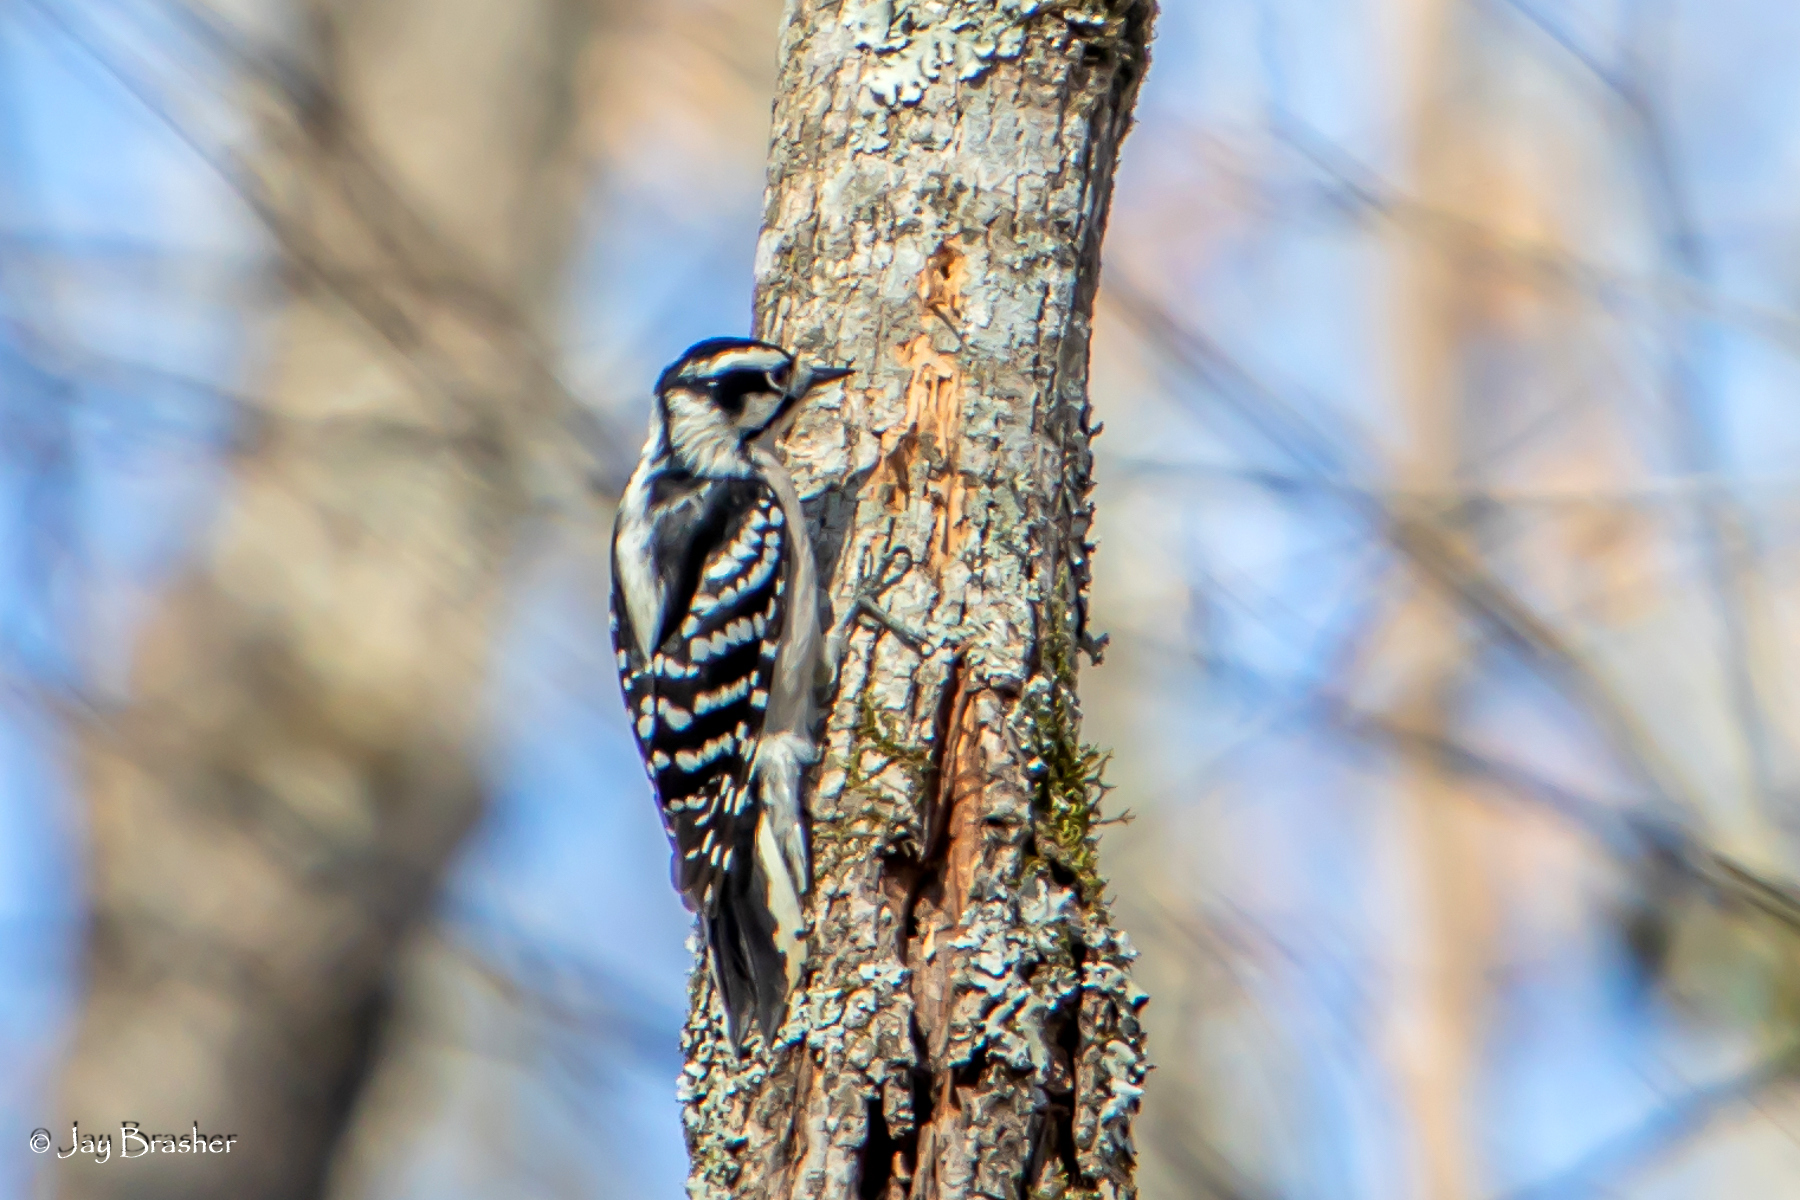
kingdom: Animalia
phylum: Chordata
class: Aves
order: Piciformes
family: Picidae
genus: Dryobates
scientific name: Dryobates pubescens
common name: Downy woodpecker
